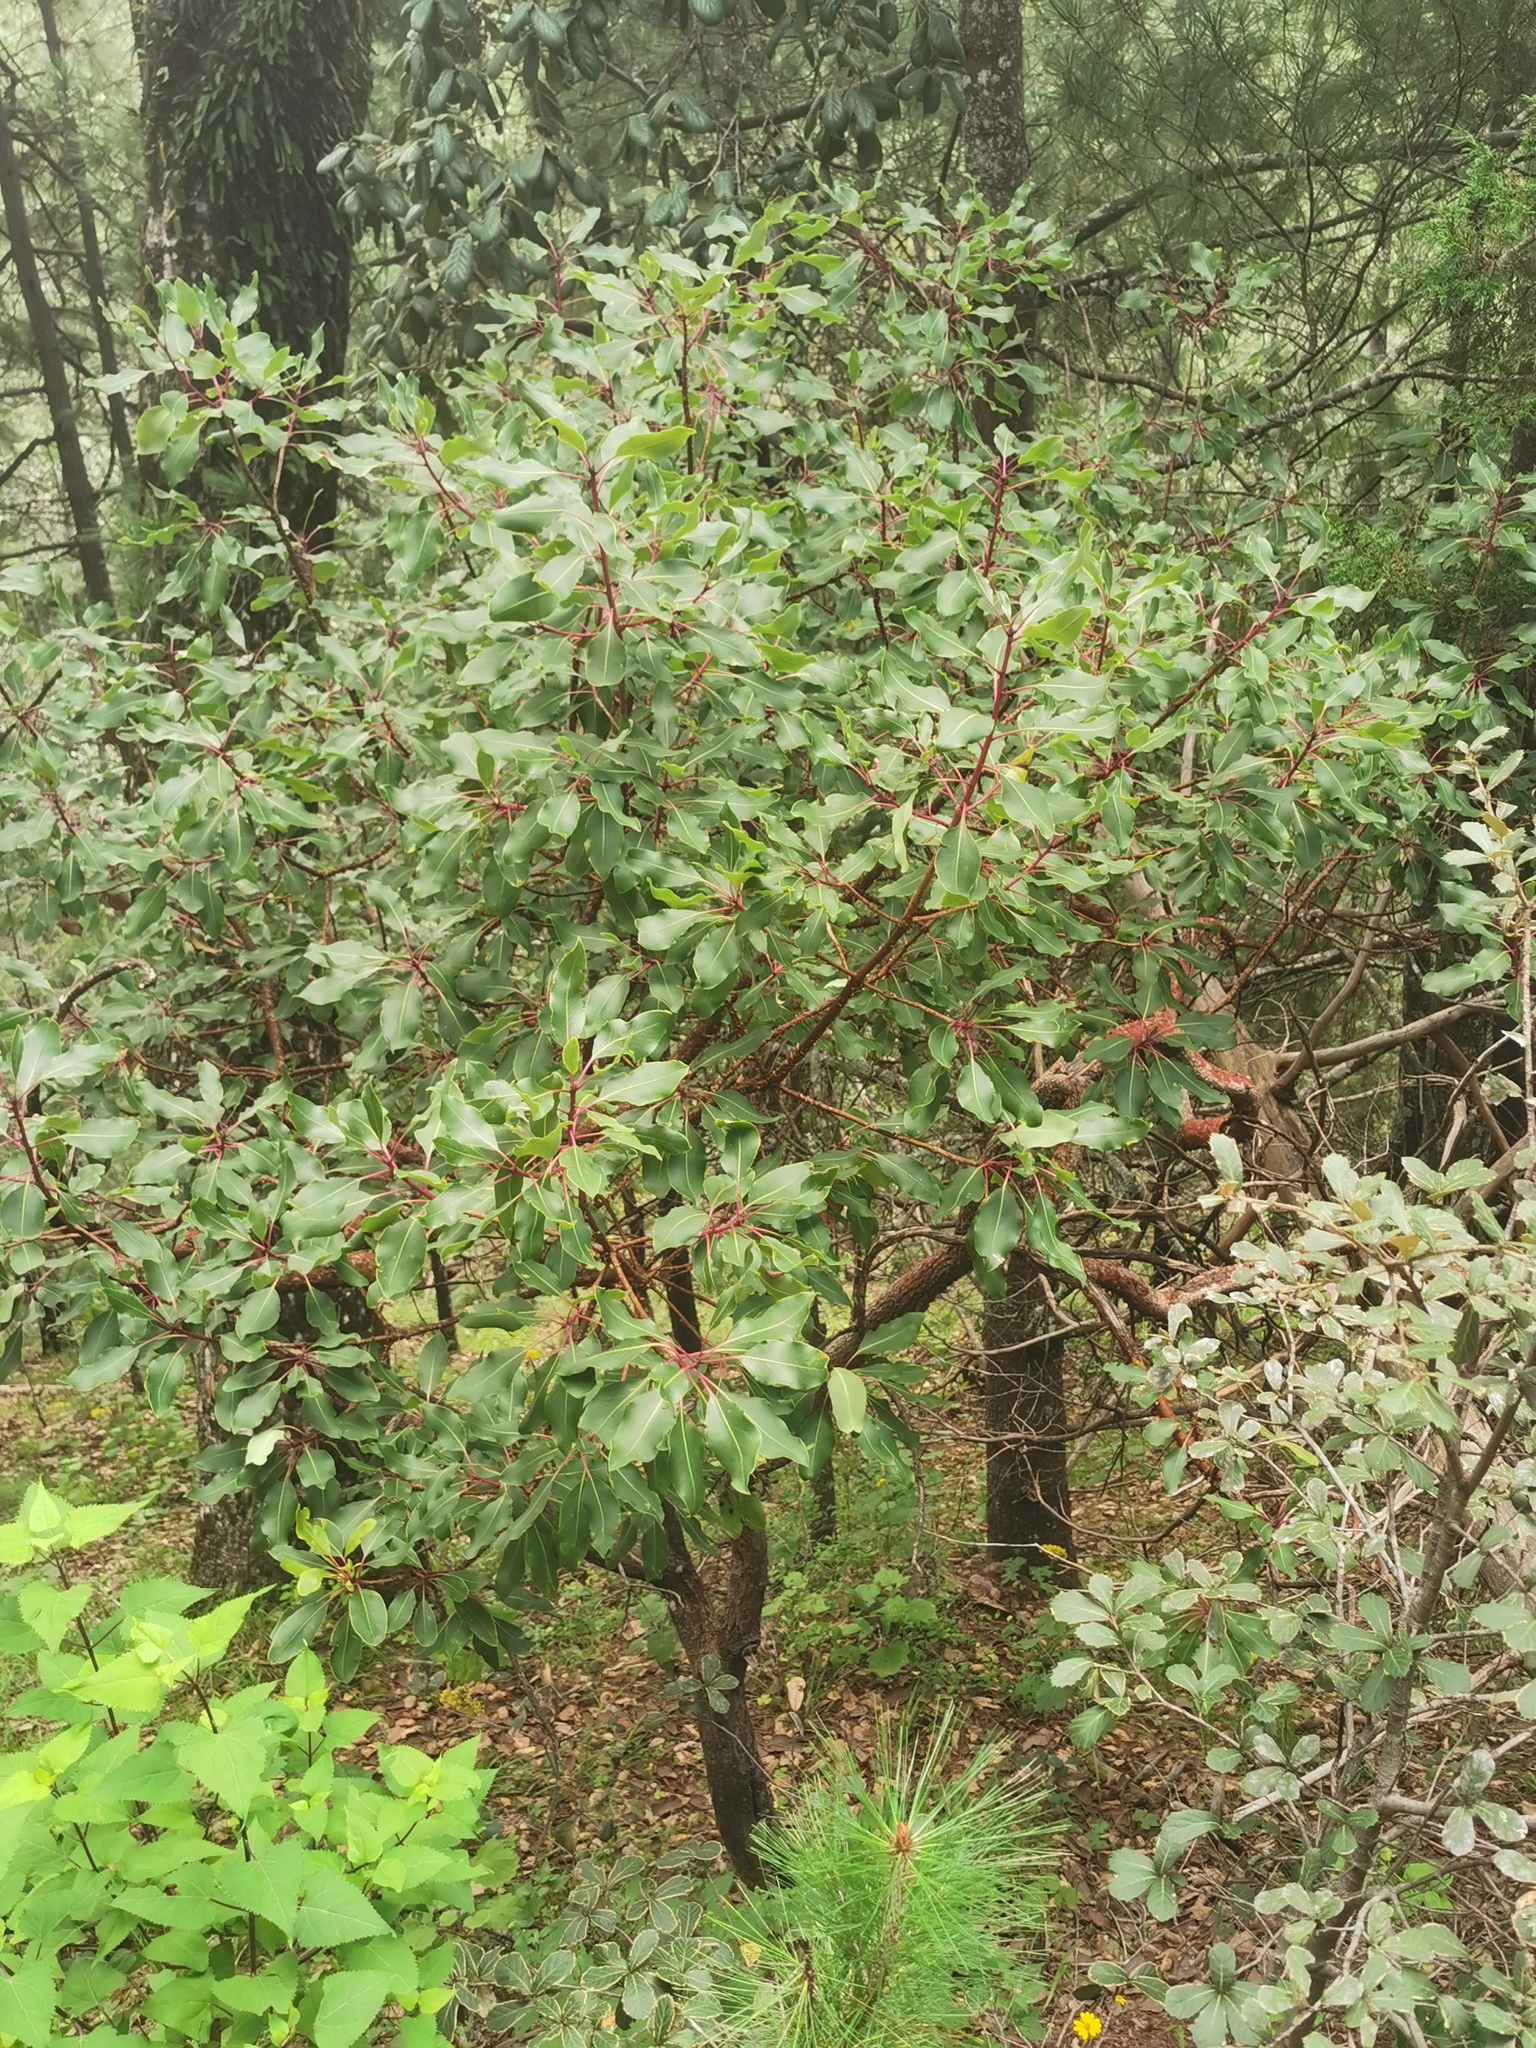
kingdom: Plantae
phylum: Tracheophyta
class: Magnoliopsida
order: Ericales
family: Ericaceae
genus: Arbutus
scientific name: Arbutus arizonica
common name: Arizona madrone
